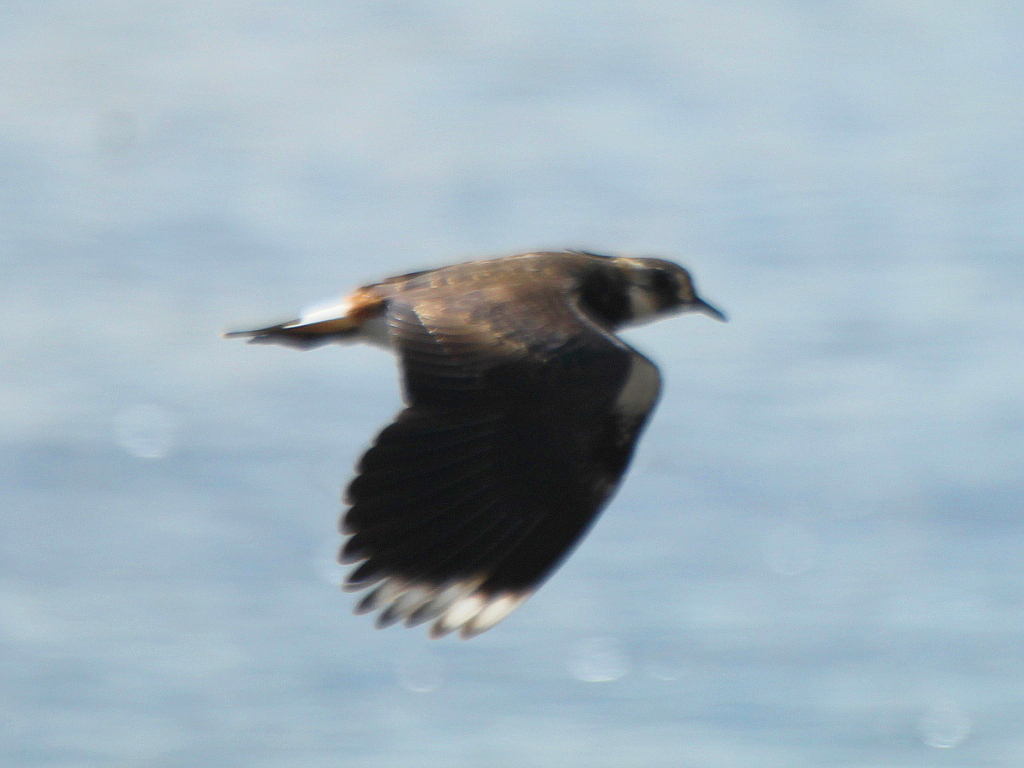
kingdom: Animalia
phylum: Chordata
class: Aves
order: Charadriiformes
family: Charadriidae
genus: Vanellus
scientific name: Vanellus vanellus
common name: Northern lapwing
